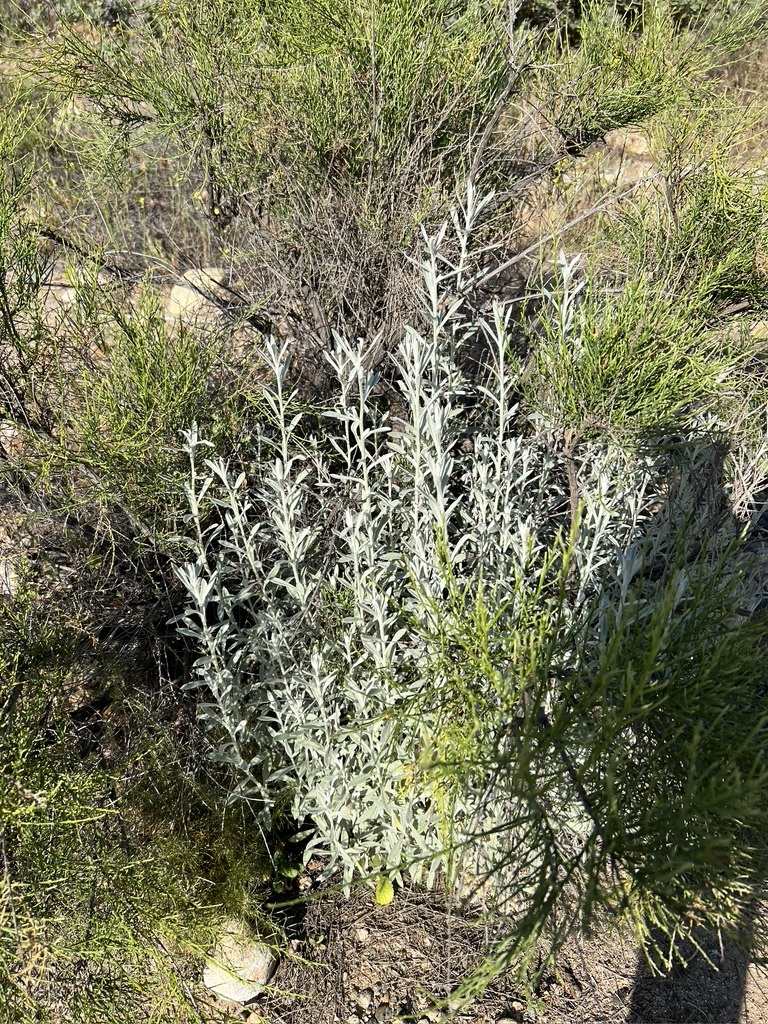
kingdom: Plantae
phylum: Tracheophyta
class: Magnoliopsida
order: Asterales
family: Asteraceae
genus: Pseudognaphalium
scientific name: Pseudognaphalium microcephalum
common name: San diego rabbit-tobacco
